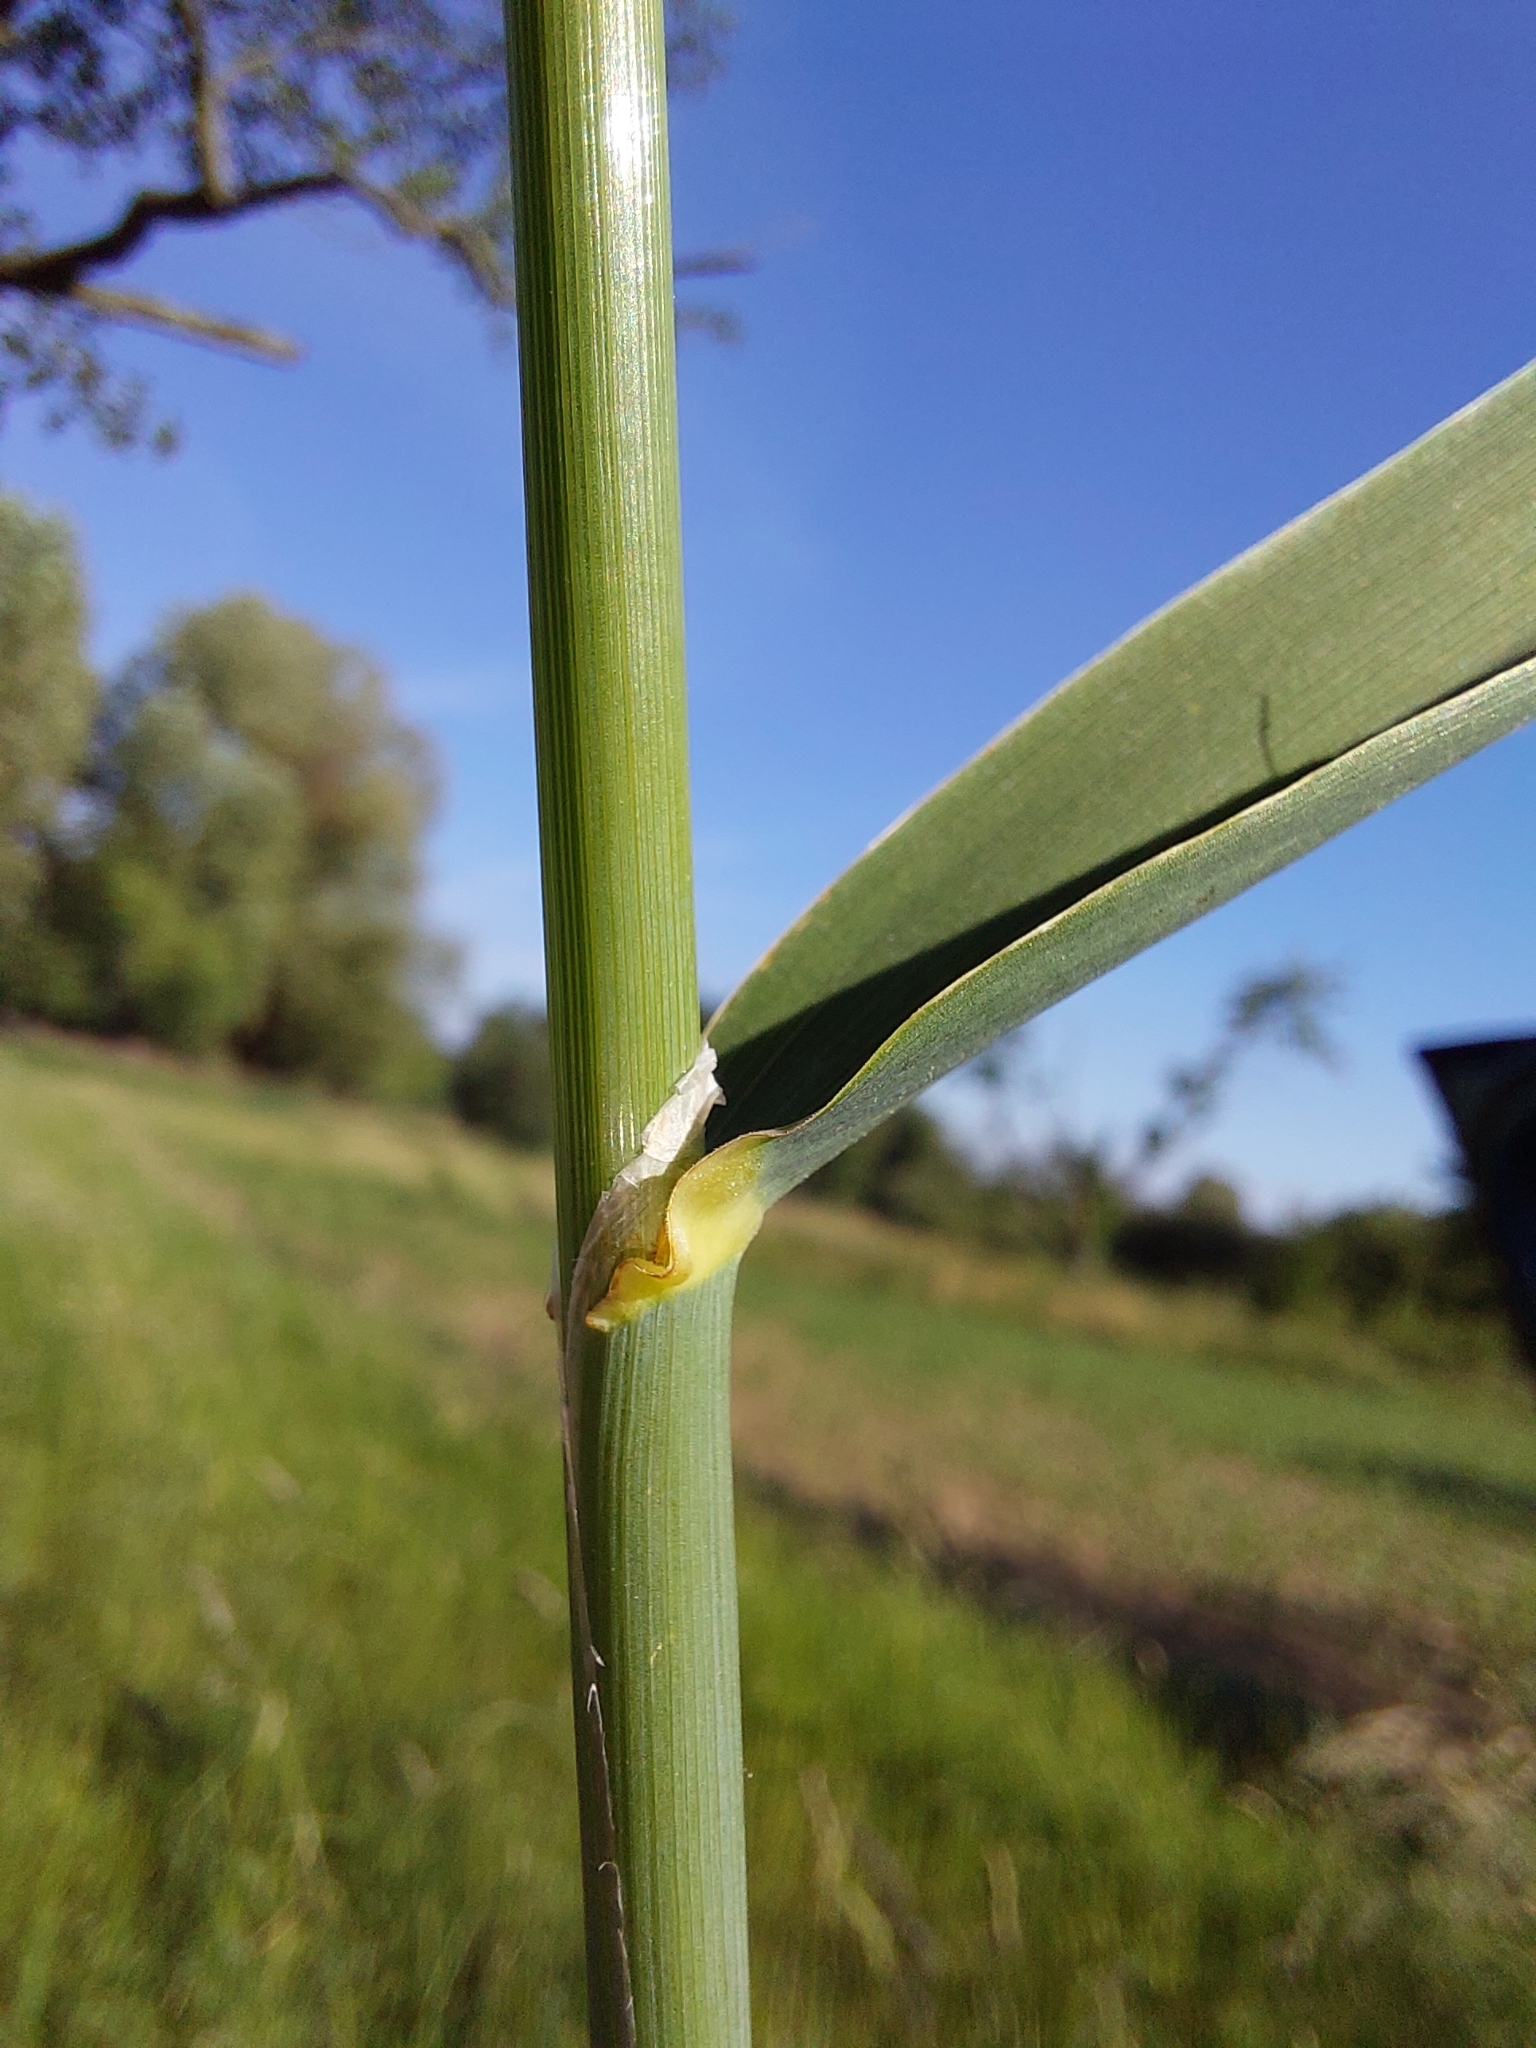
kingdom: Plantae
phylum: Tracheophyta
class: Liliopsida
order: Poales
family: Poaceae
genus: Phalaris
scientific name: Phalaris arundinacea
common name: Reed canary-grass
